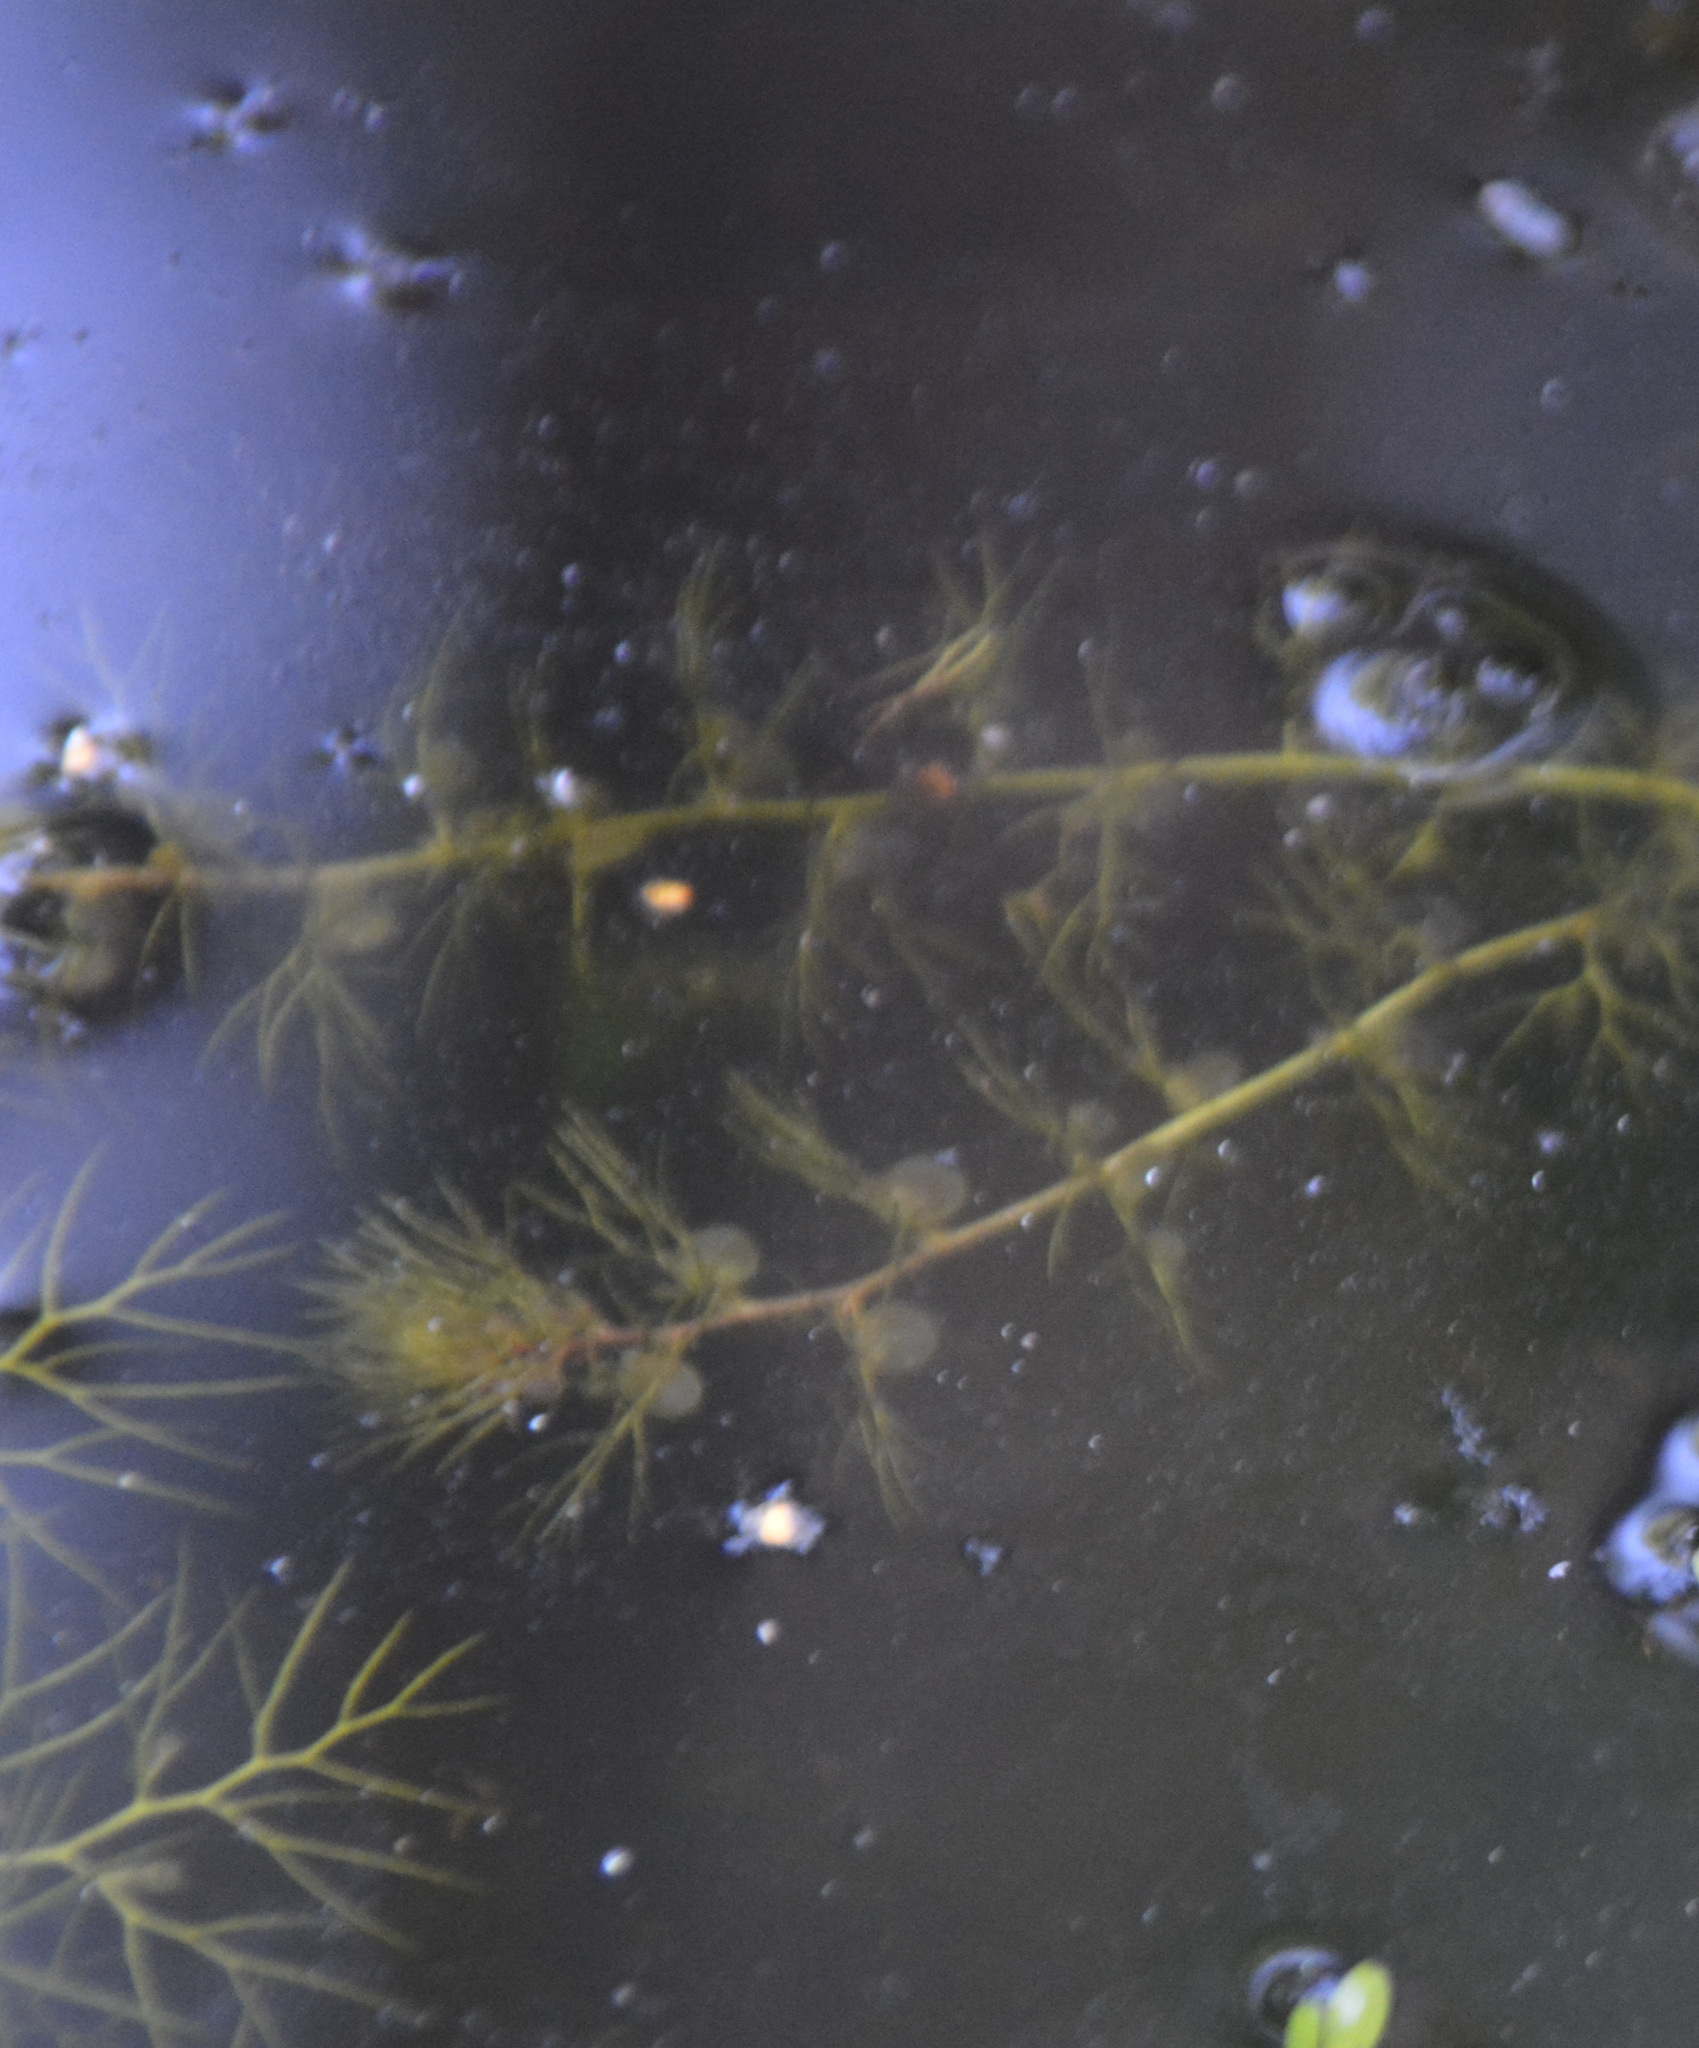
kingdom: Plantae
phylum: Tracheophyta
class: Magnoliopsida
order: Lamiales
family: Lentibulariaceae
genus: Utricularia
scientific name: Utricularia
